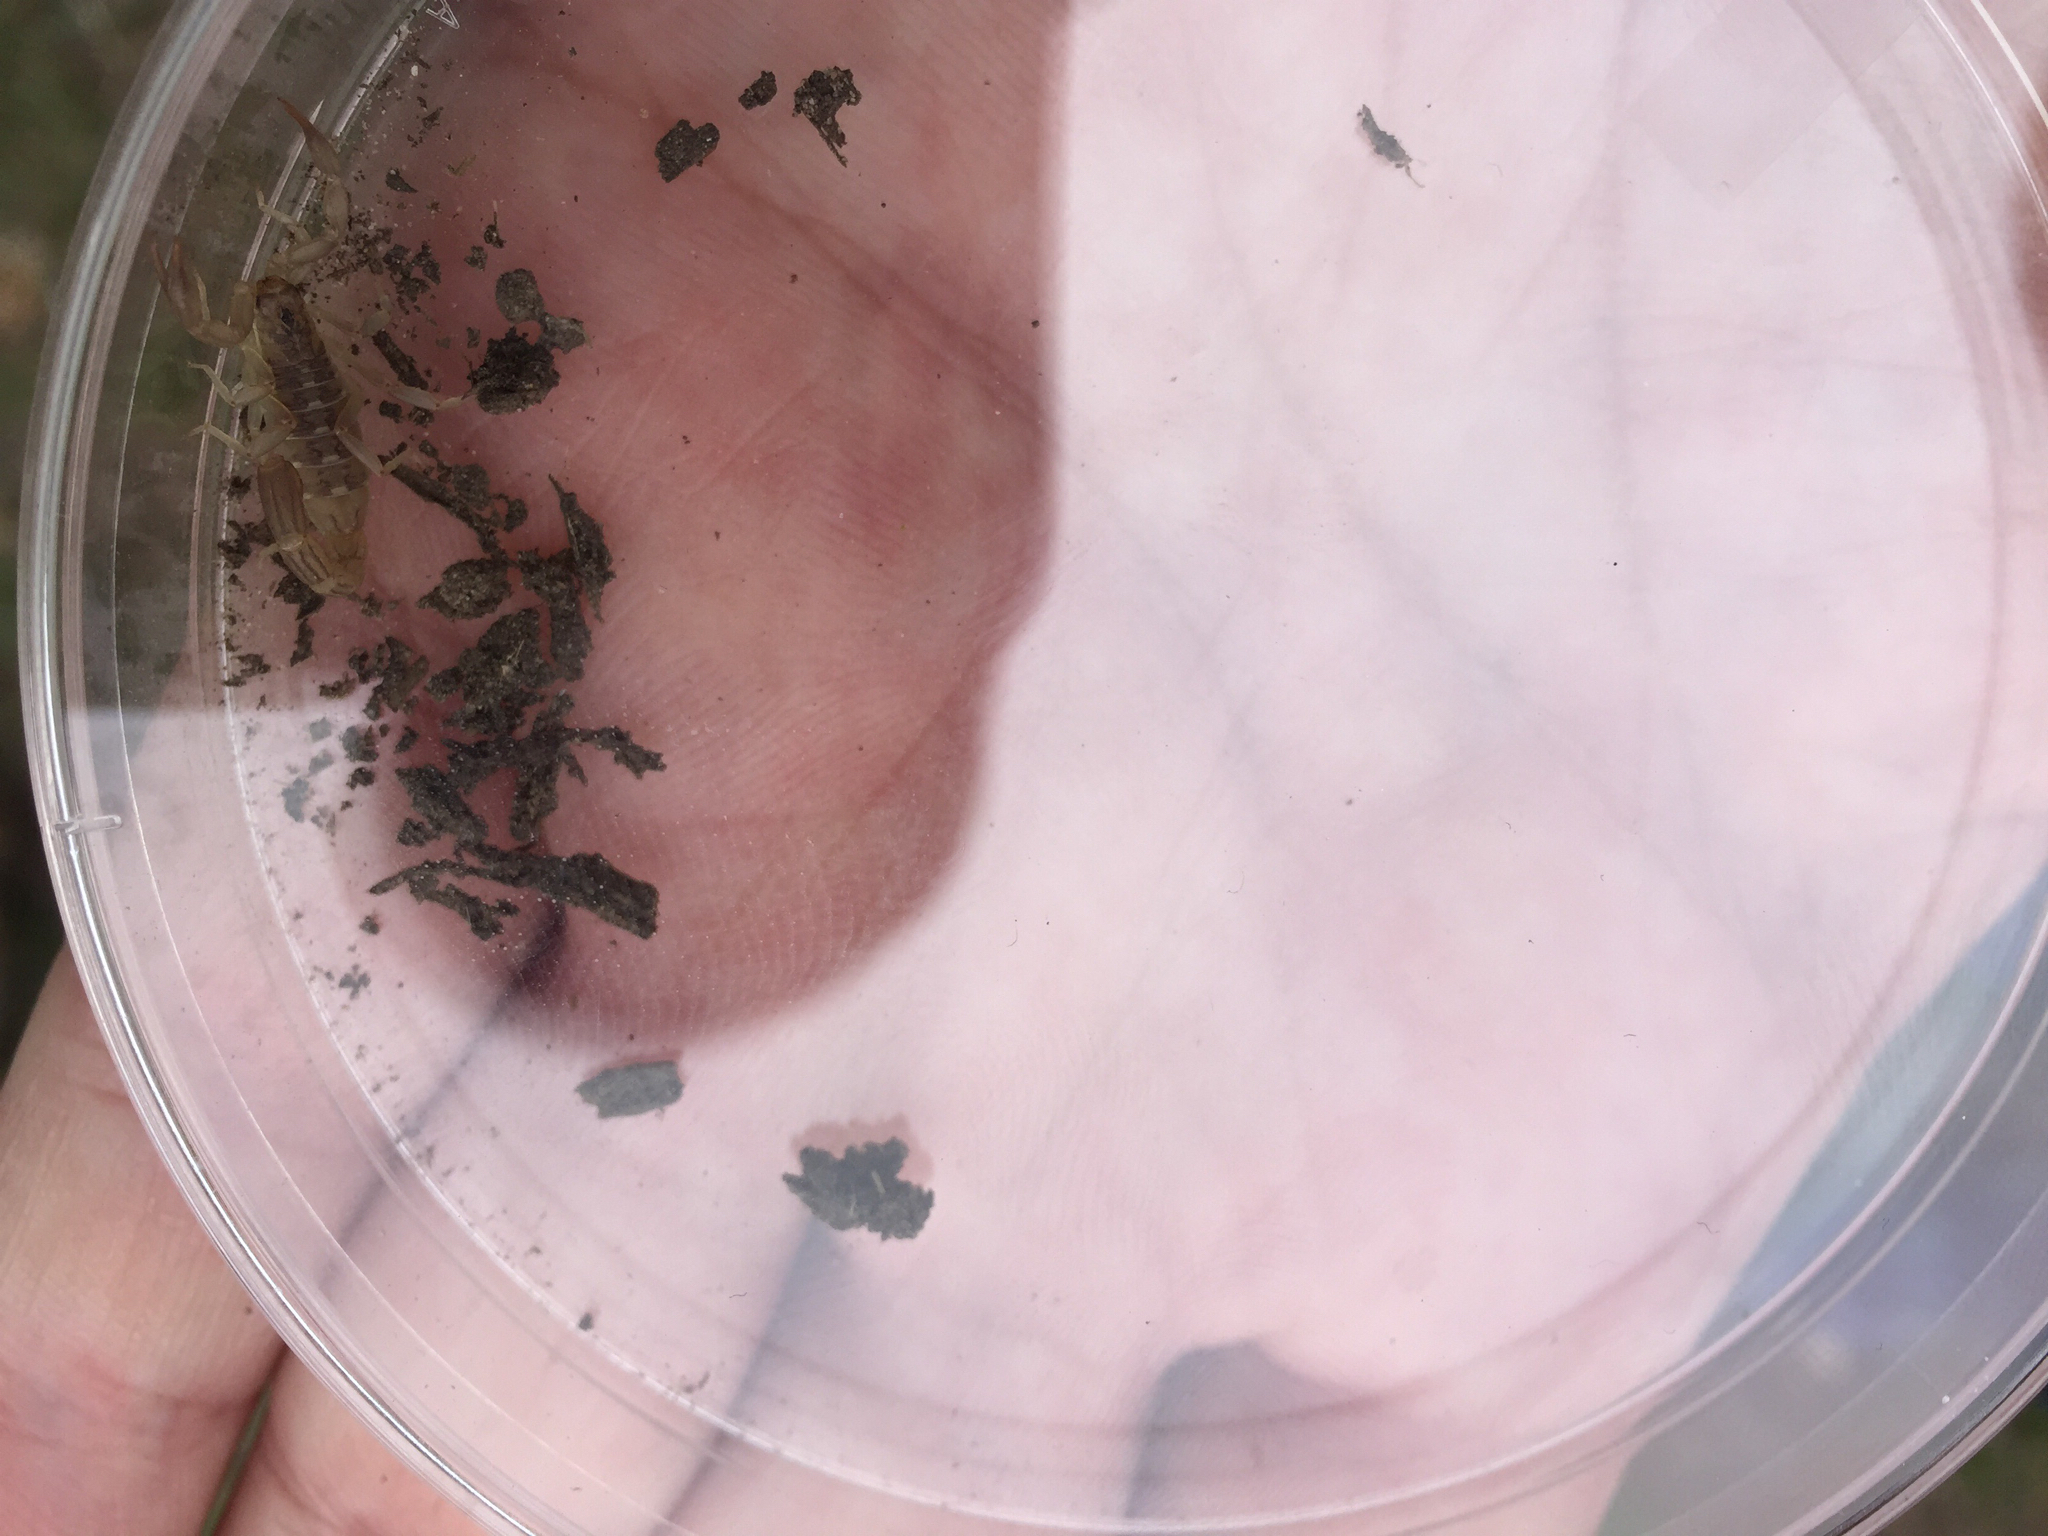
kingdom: Animalia
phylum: Arthropoda
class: Arachnida
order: Scorpiones
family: Vaejovidae
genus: Chihuahuanus
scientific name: Chihuahuanus coahuilae
